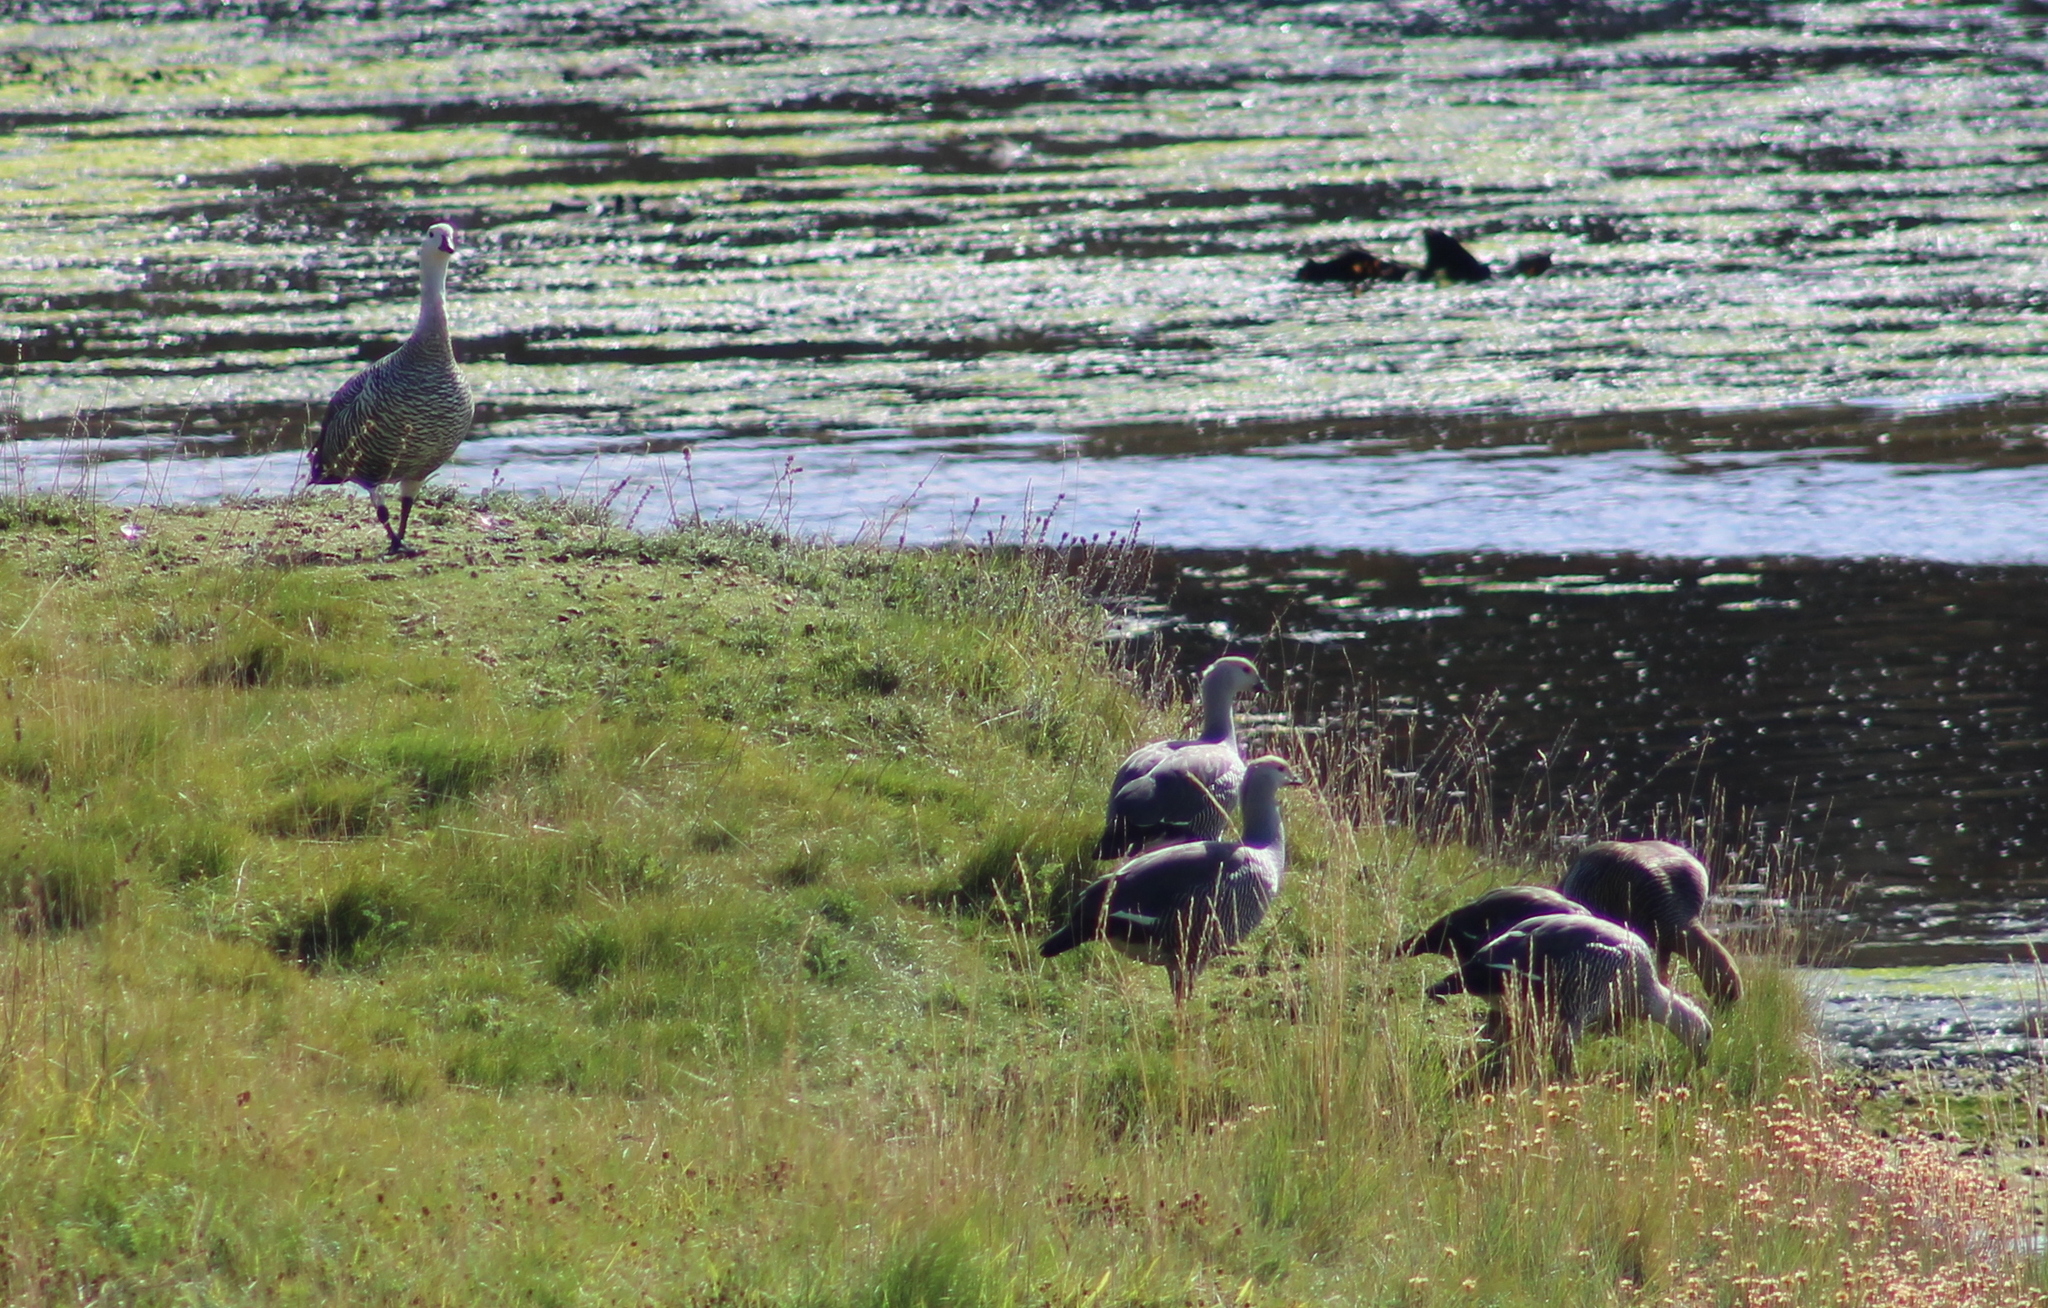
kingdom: Animalia
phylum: Chordata
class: Aves
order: Anseriformes
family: Anatidae
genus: Chloephaga
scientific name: Chloephaga picta
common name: Upland goose
